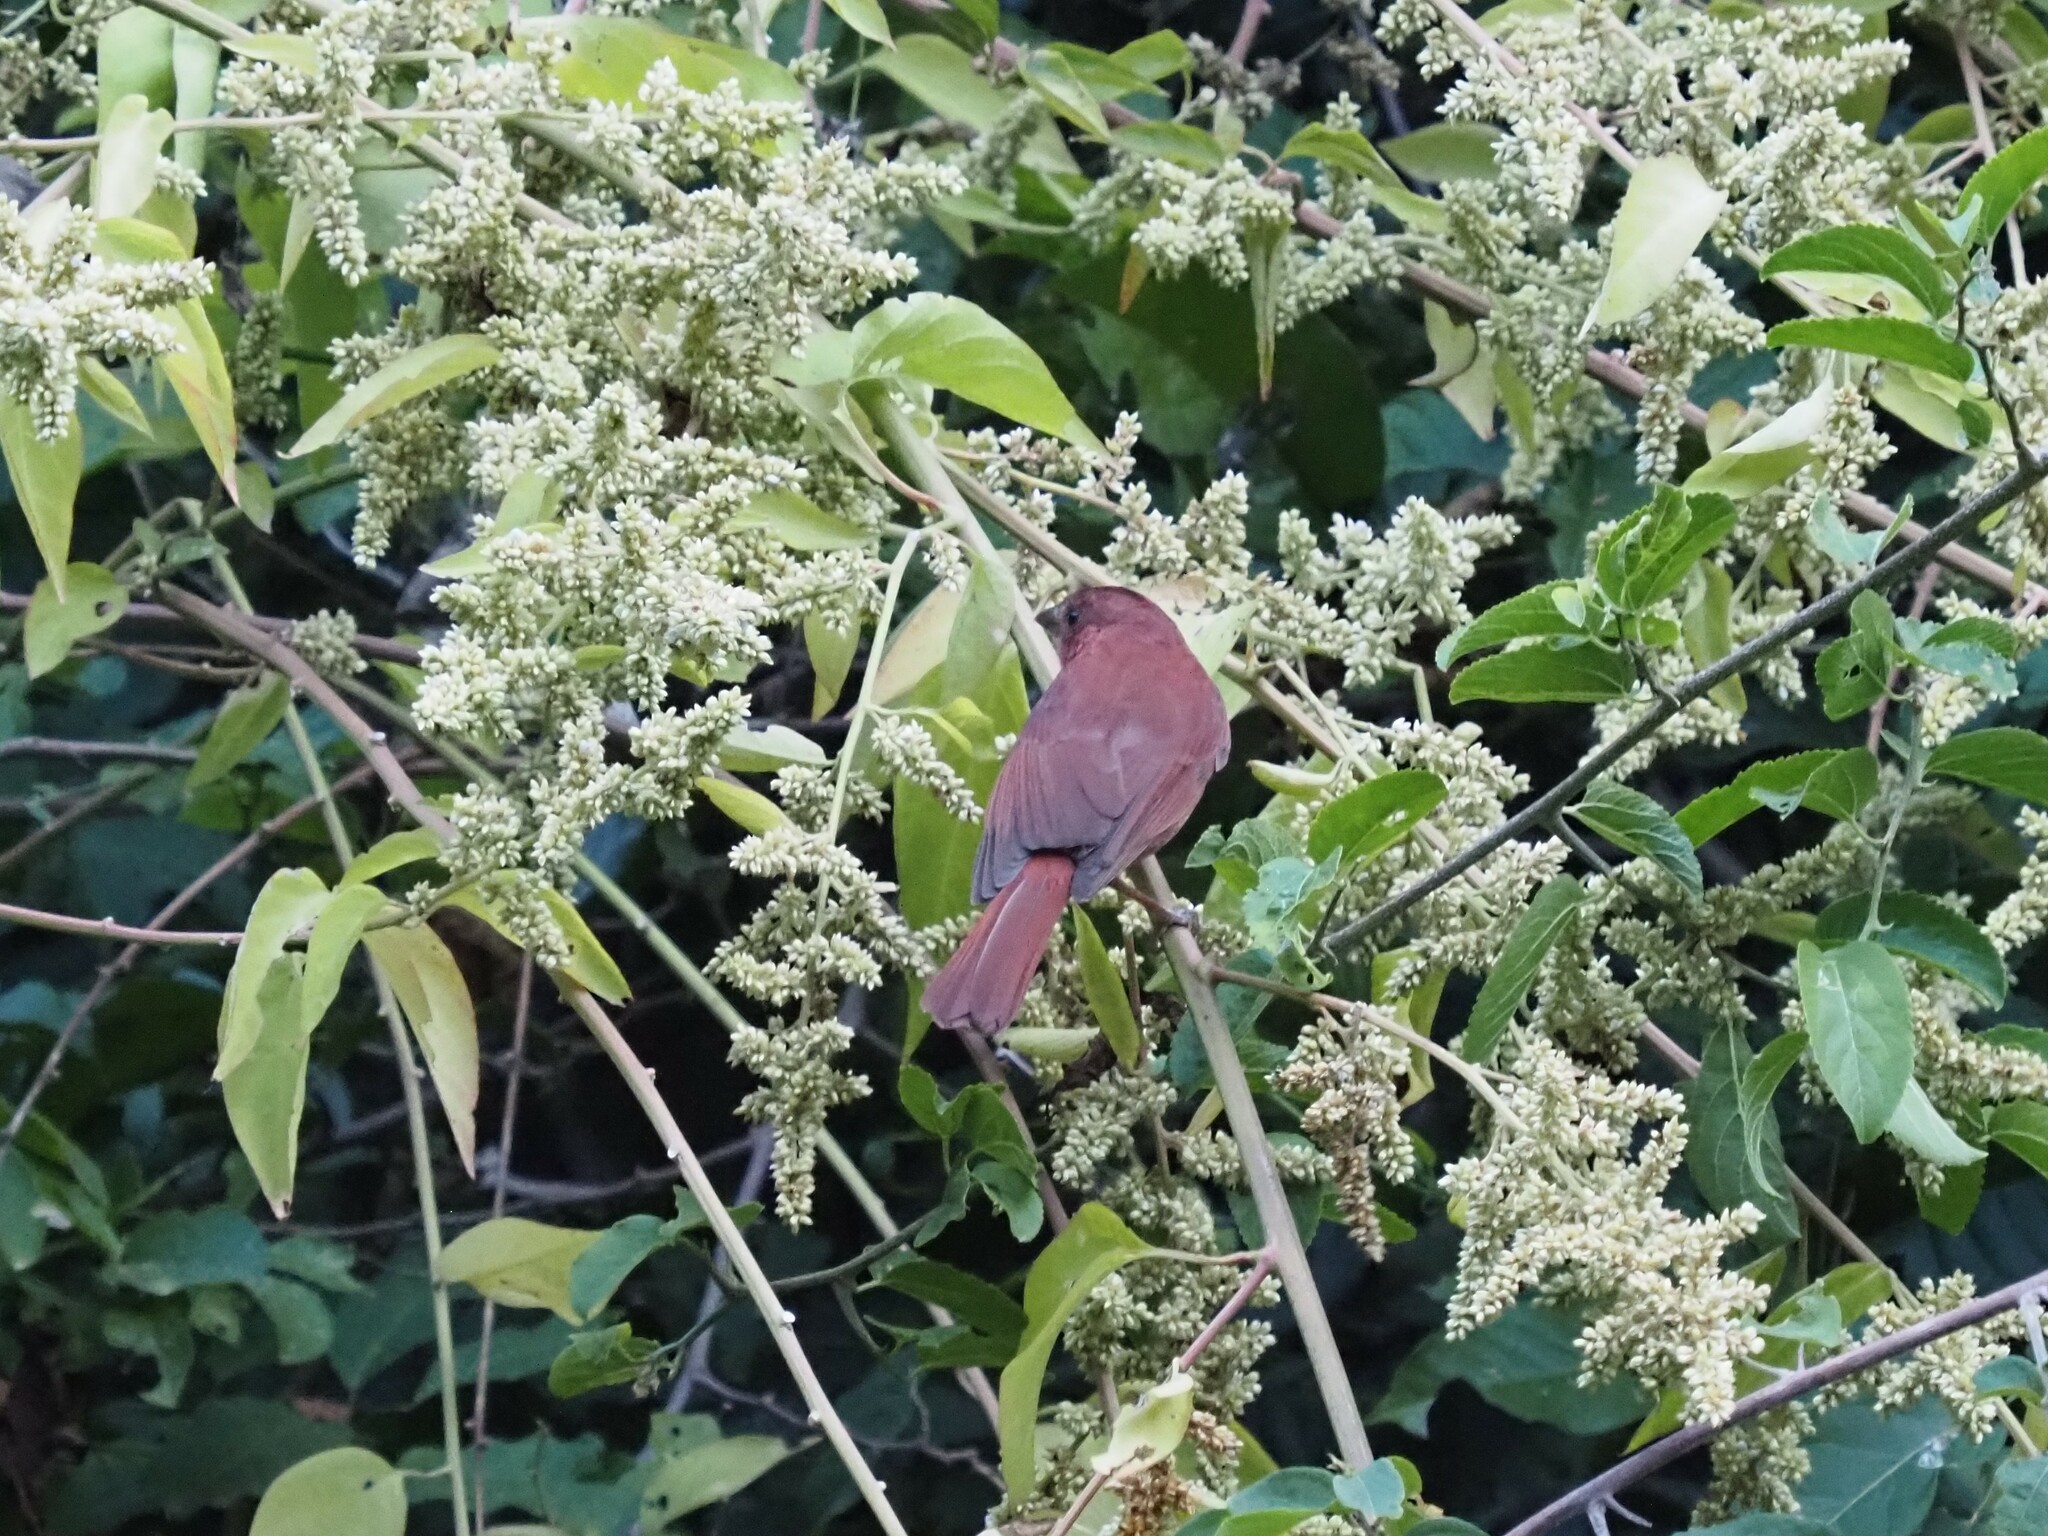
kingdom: Animalia
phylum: Chordata
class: Aves
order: Passeriformes
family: Cardinalidae
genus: Habia
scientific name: Habia rubica
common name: Red-crowned ant-tanager
